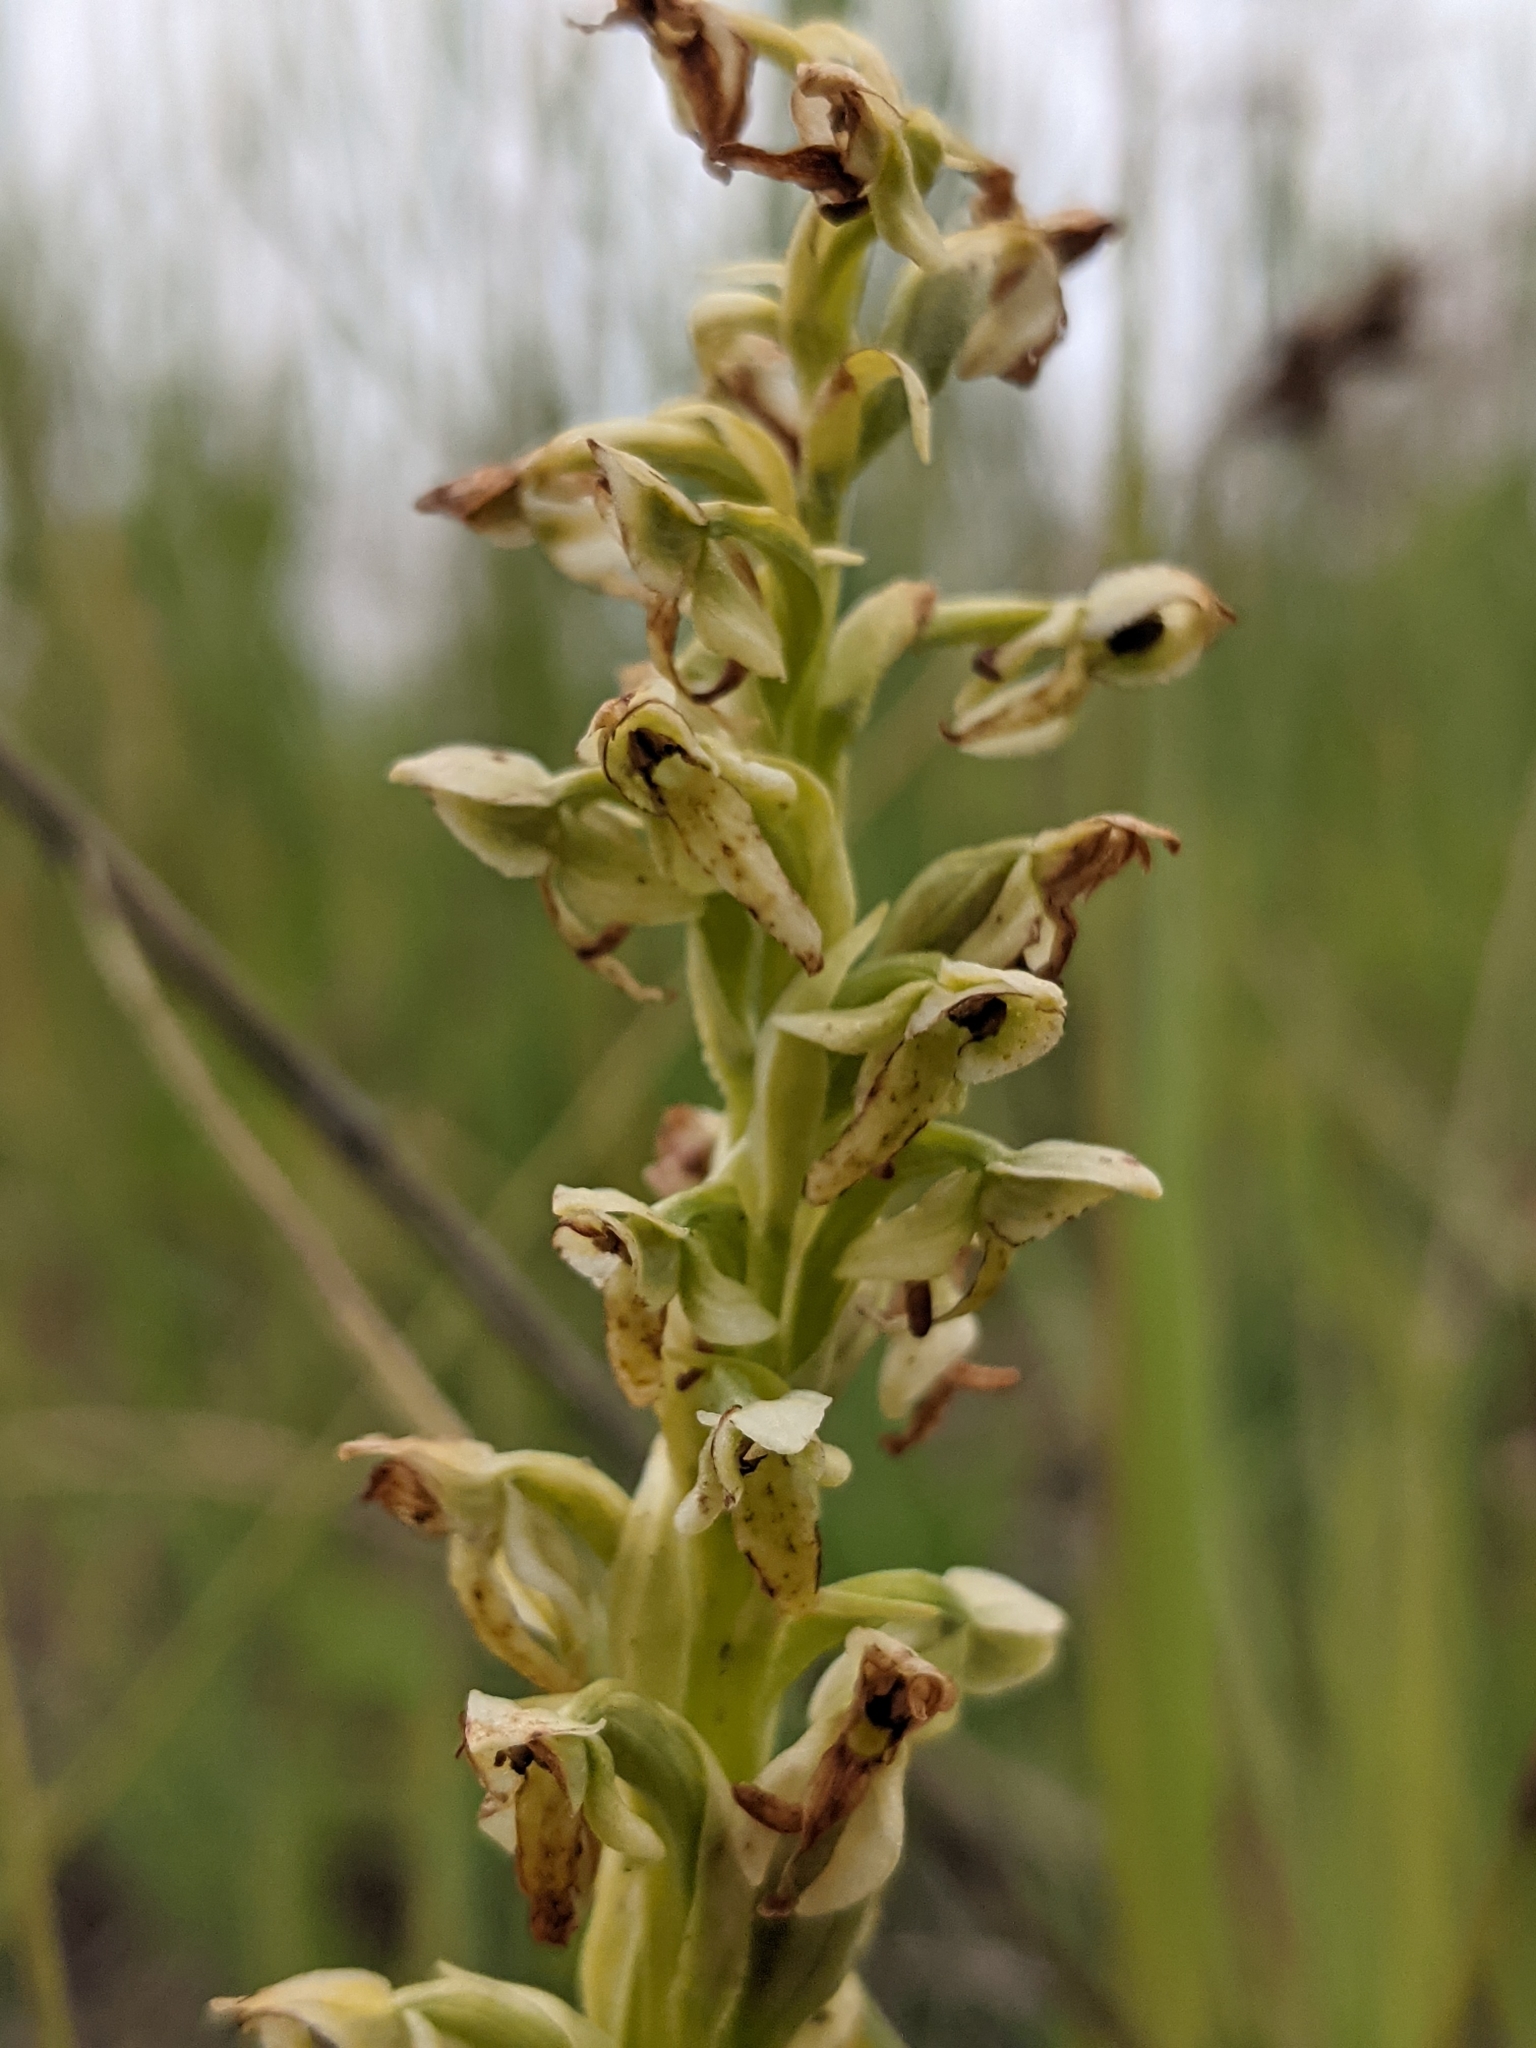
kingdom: Plantae
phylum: Tracheophyta
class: Liliopsida
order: Asparagales
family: Orchidaceae
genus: Platanthera
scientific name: Platanthera huronensis
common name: Fragrant green orchid
